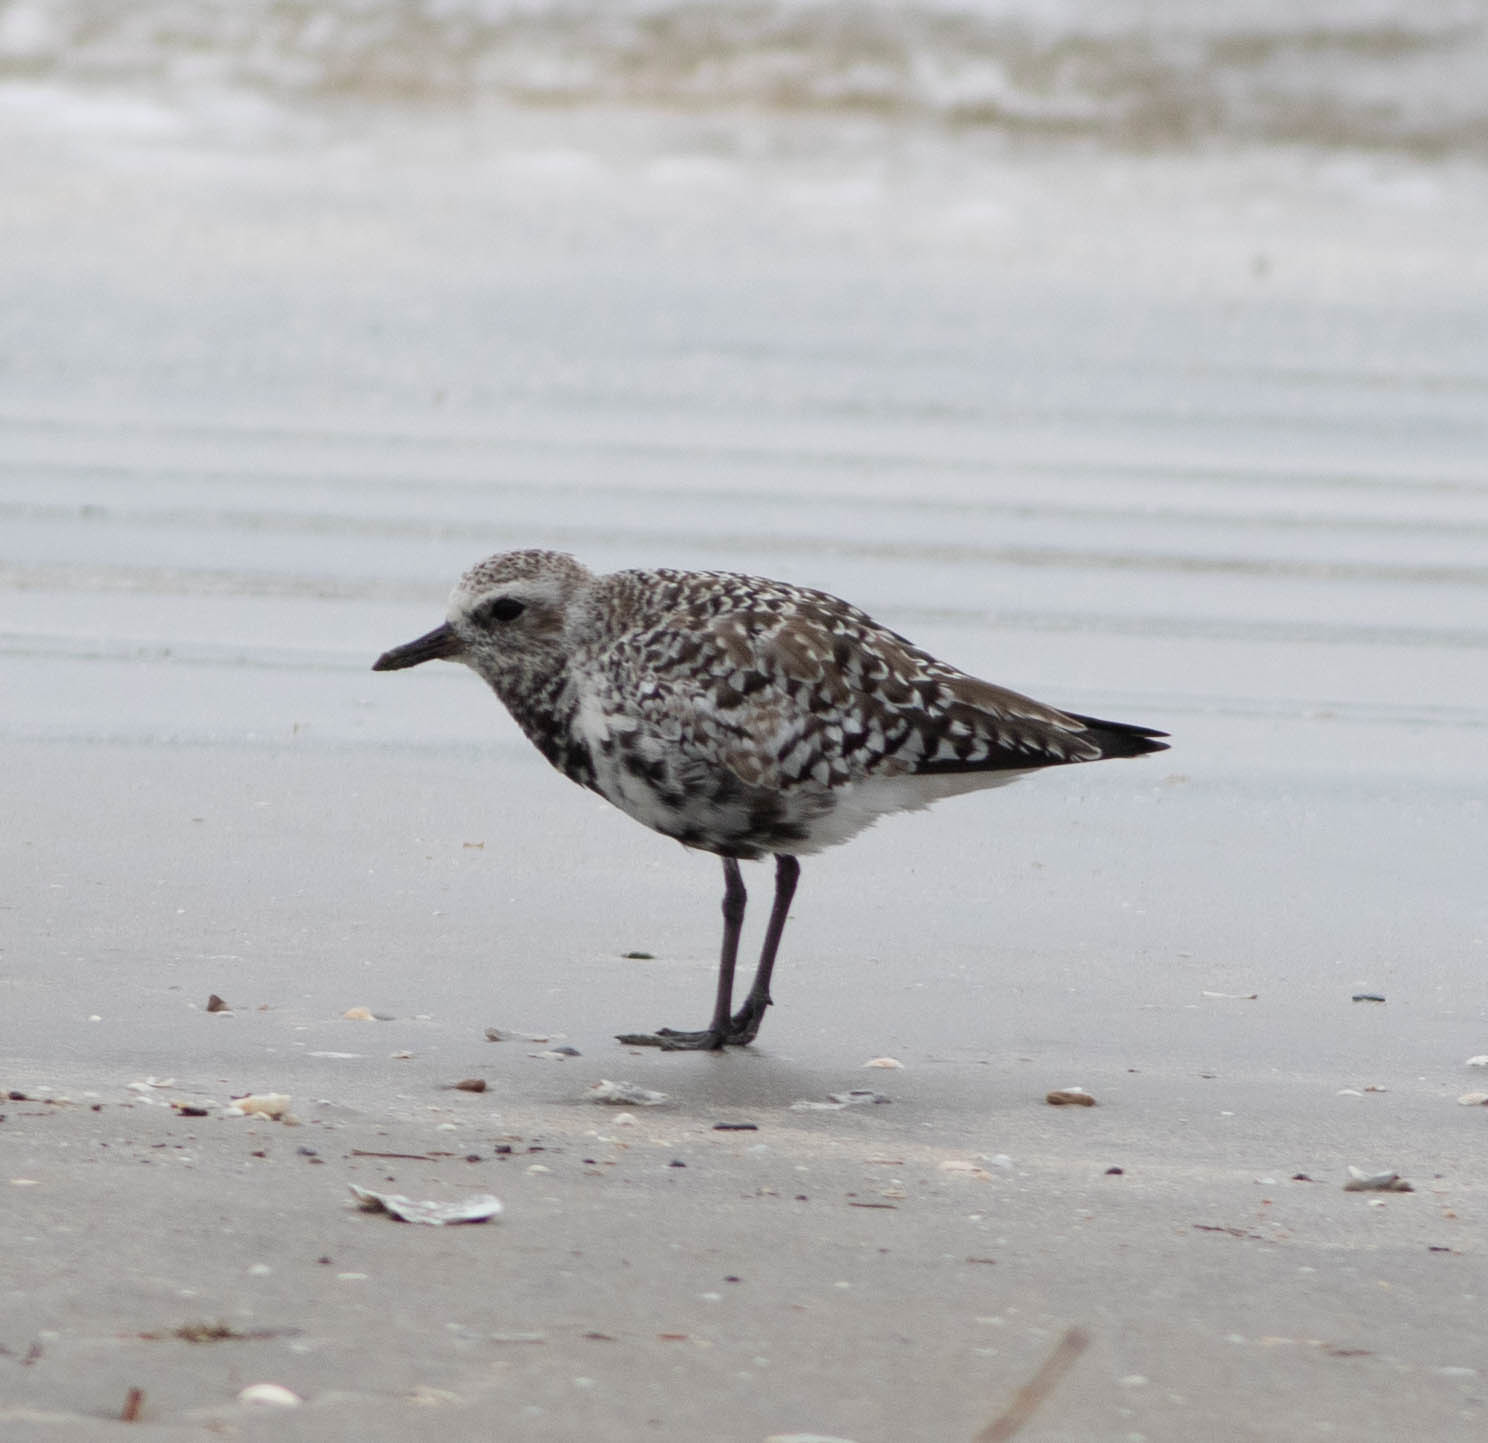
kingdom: Animalia
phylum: Chordata
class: Aves
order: Charadriiformes
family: Charadriidae
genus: Pluvialis
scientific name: Pluvialis squatarola
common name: Grey plover
